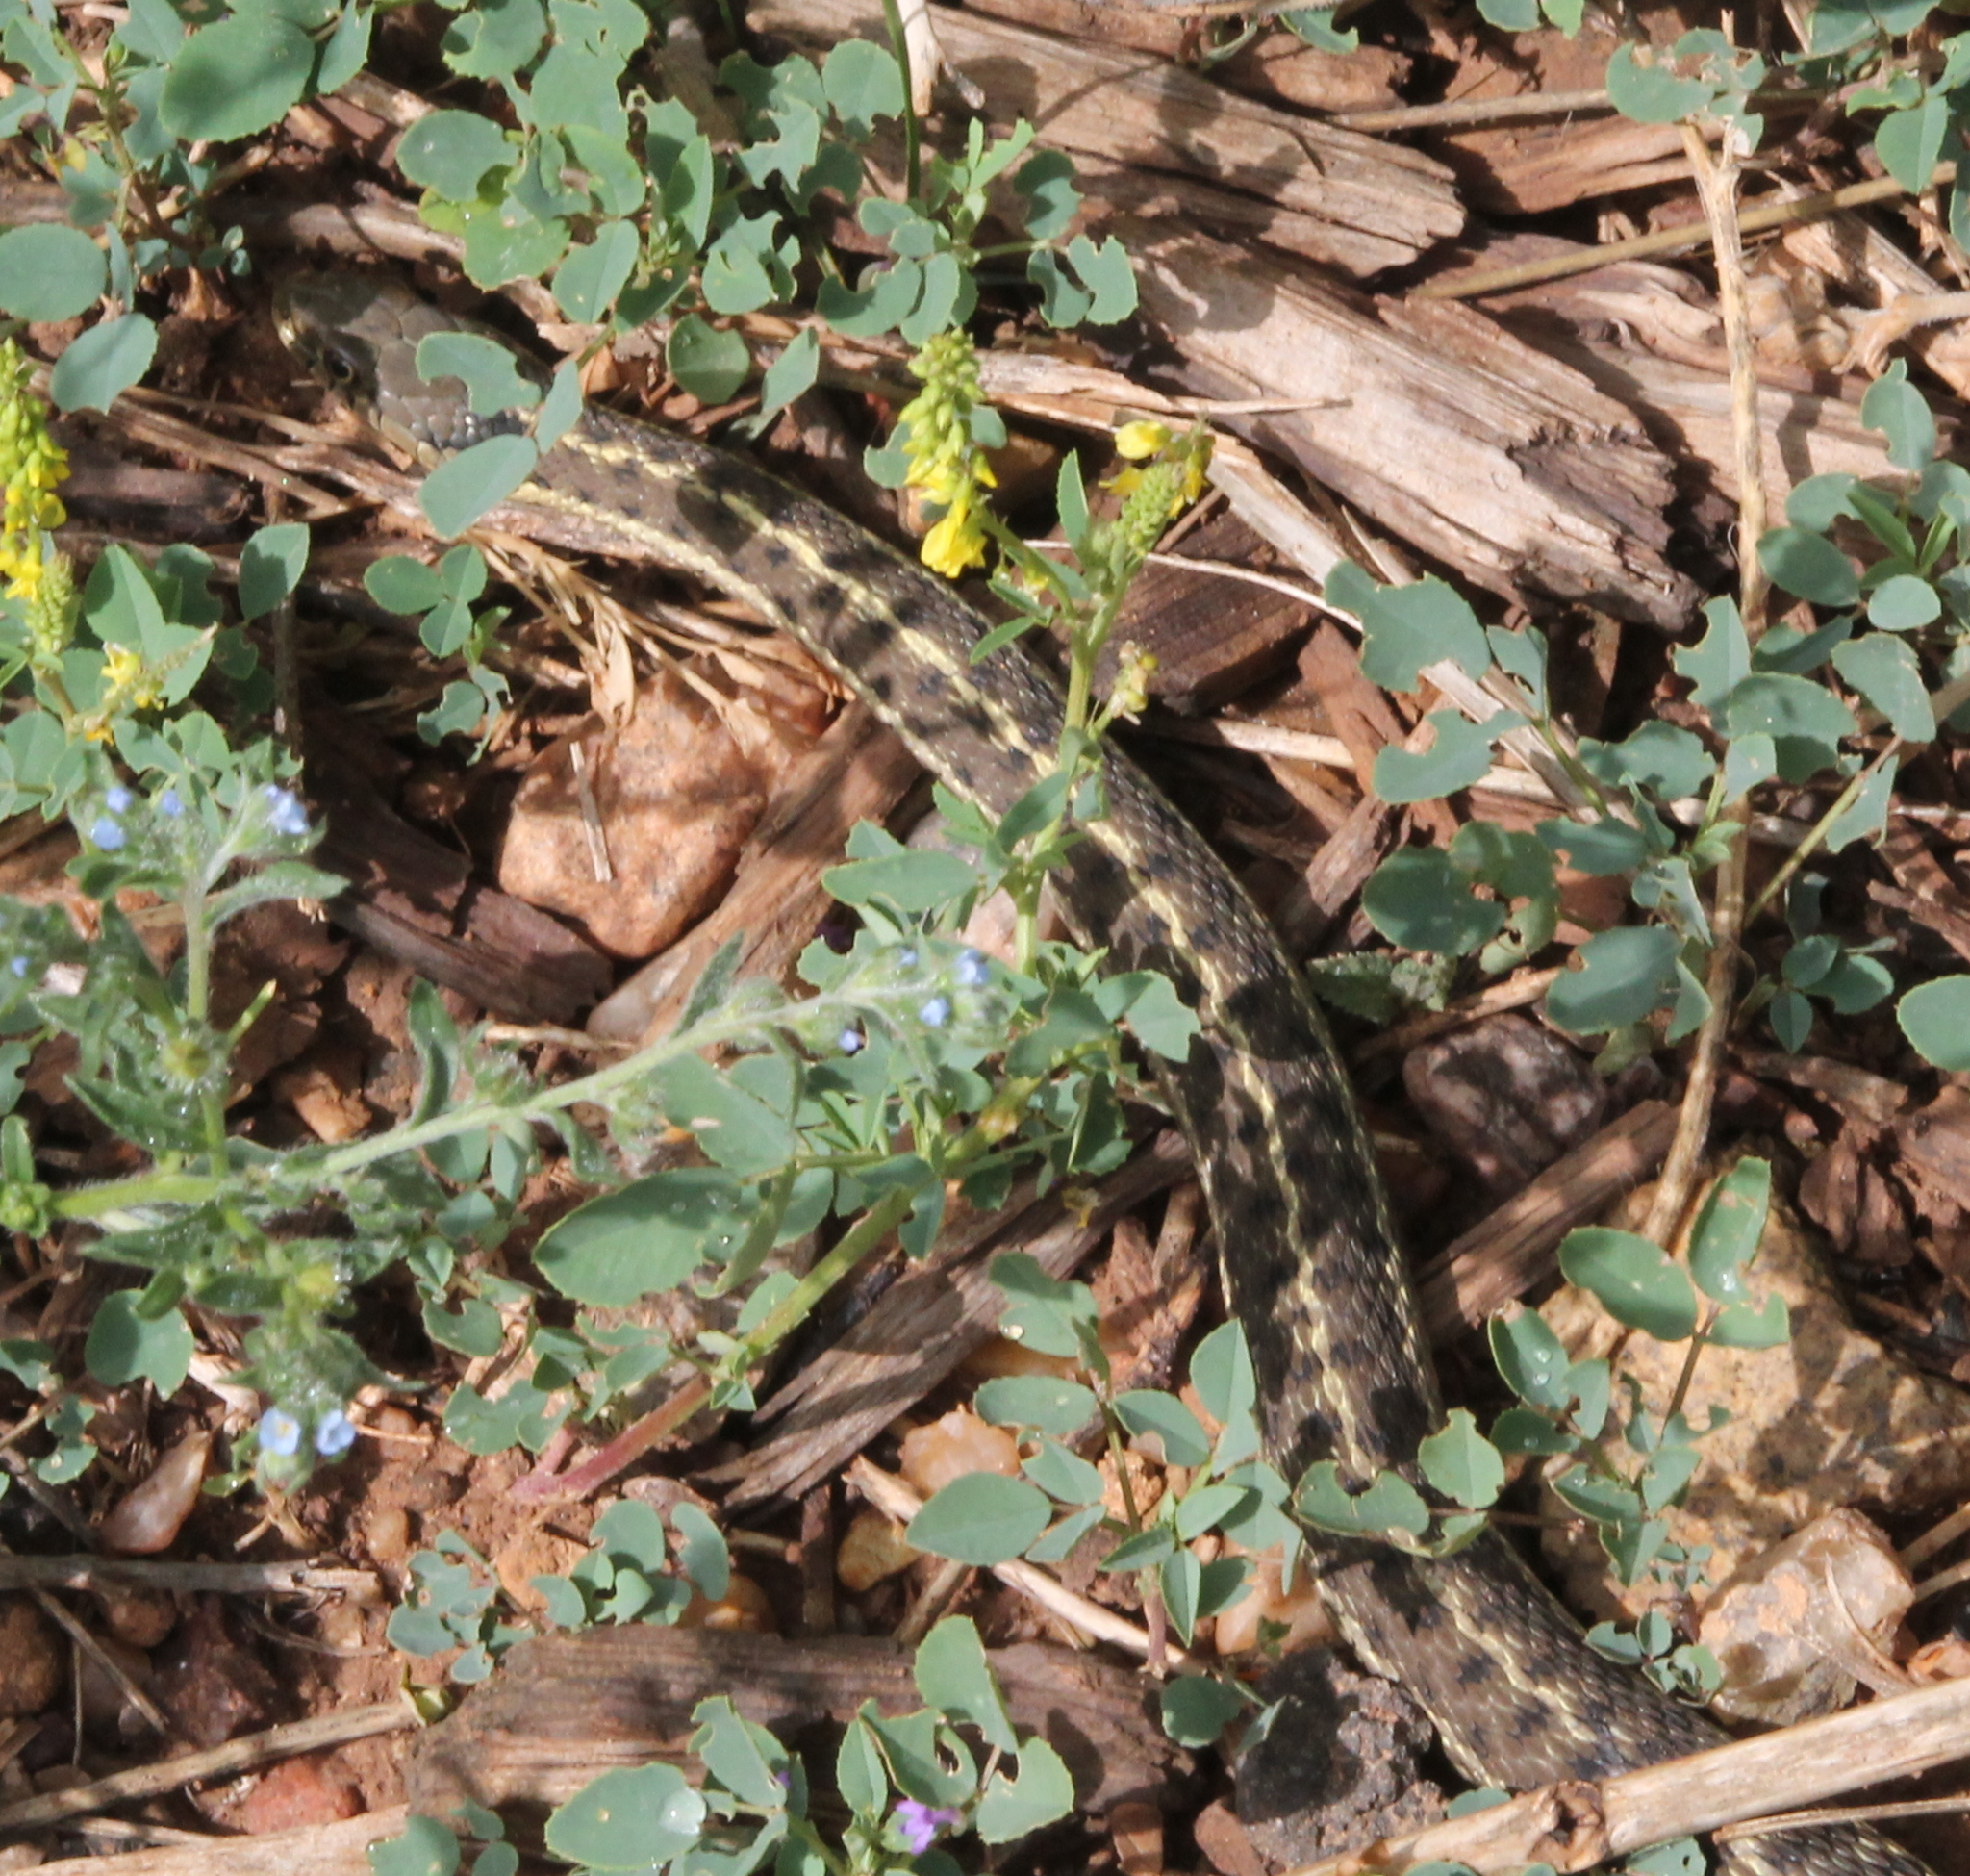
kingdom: Animalia
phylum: Chordata
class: Squamata
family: Colubridae
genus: Thamnophis
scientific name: Thamnophis elegans
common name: Western terrestrial garter snake
